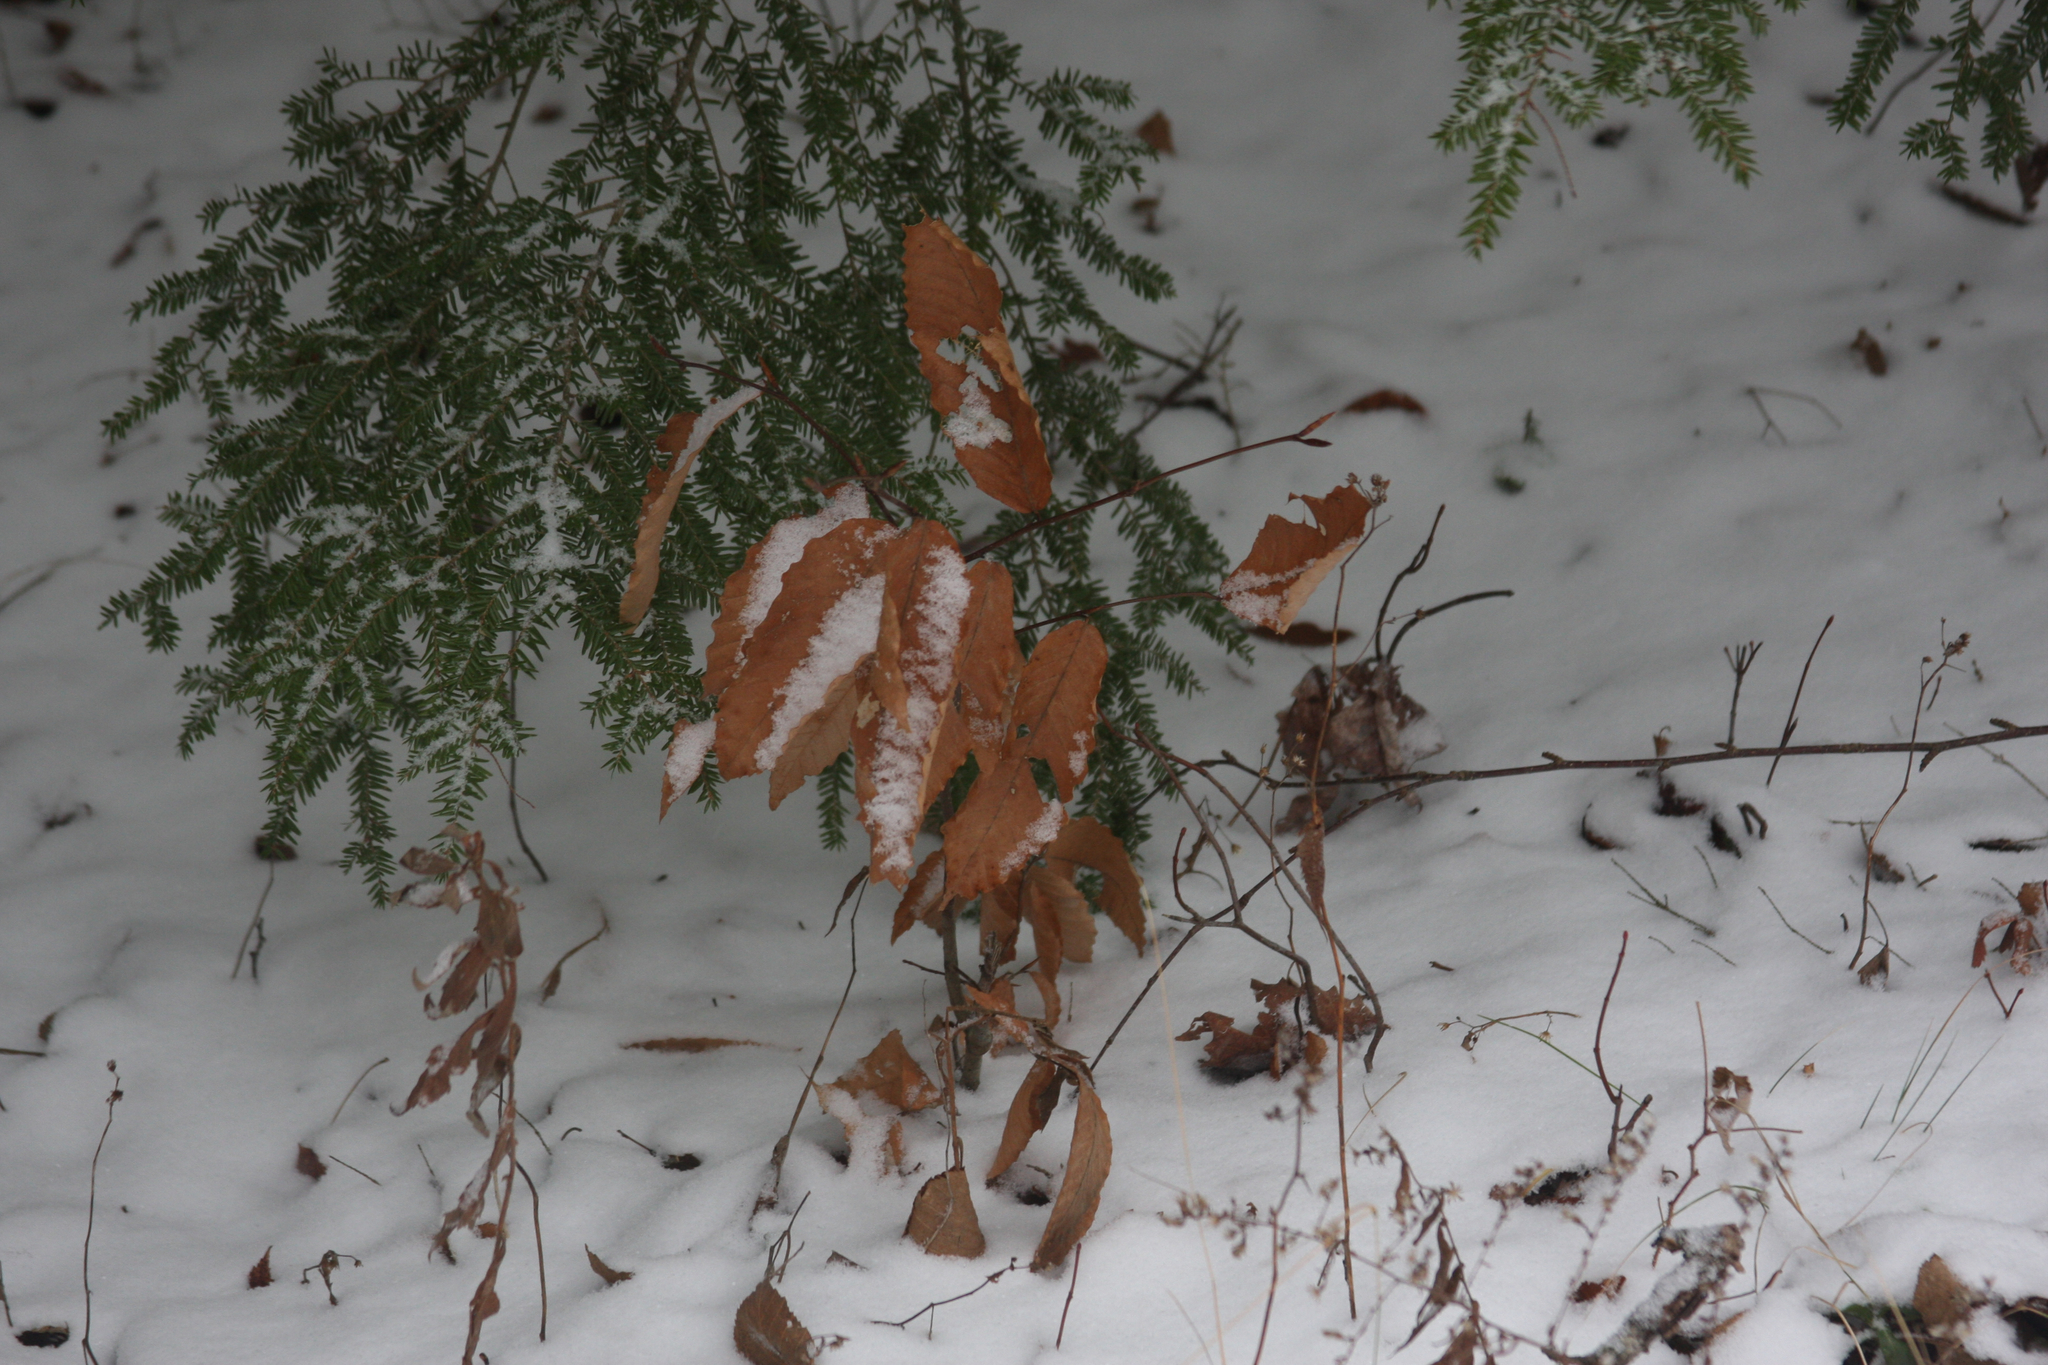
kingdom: Plantae
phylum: Tracheophyta
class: Magnoliopsida
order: Fagales
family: Fagaceae
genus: Fagus
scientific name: Fagus grandifolia
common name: American beech
